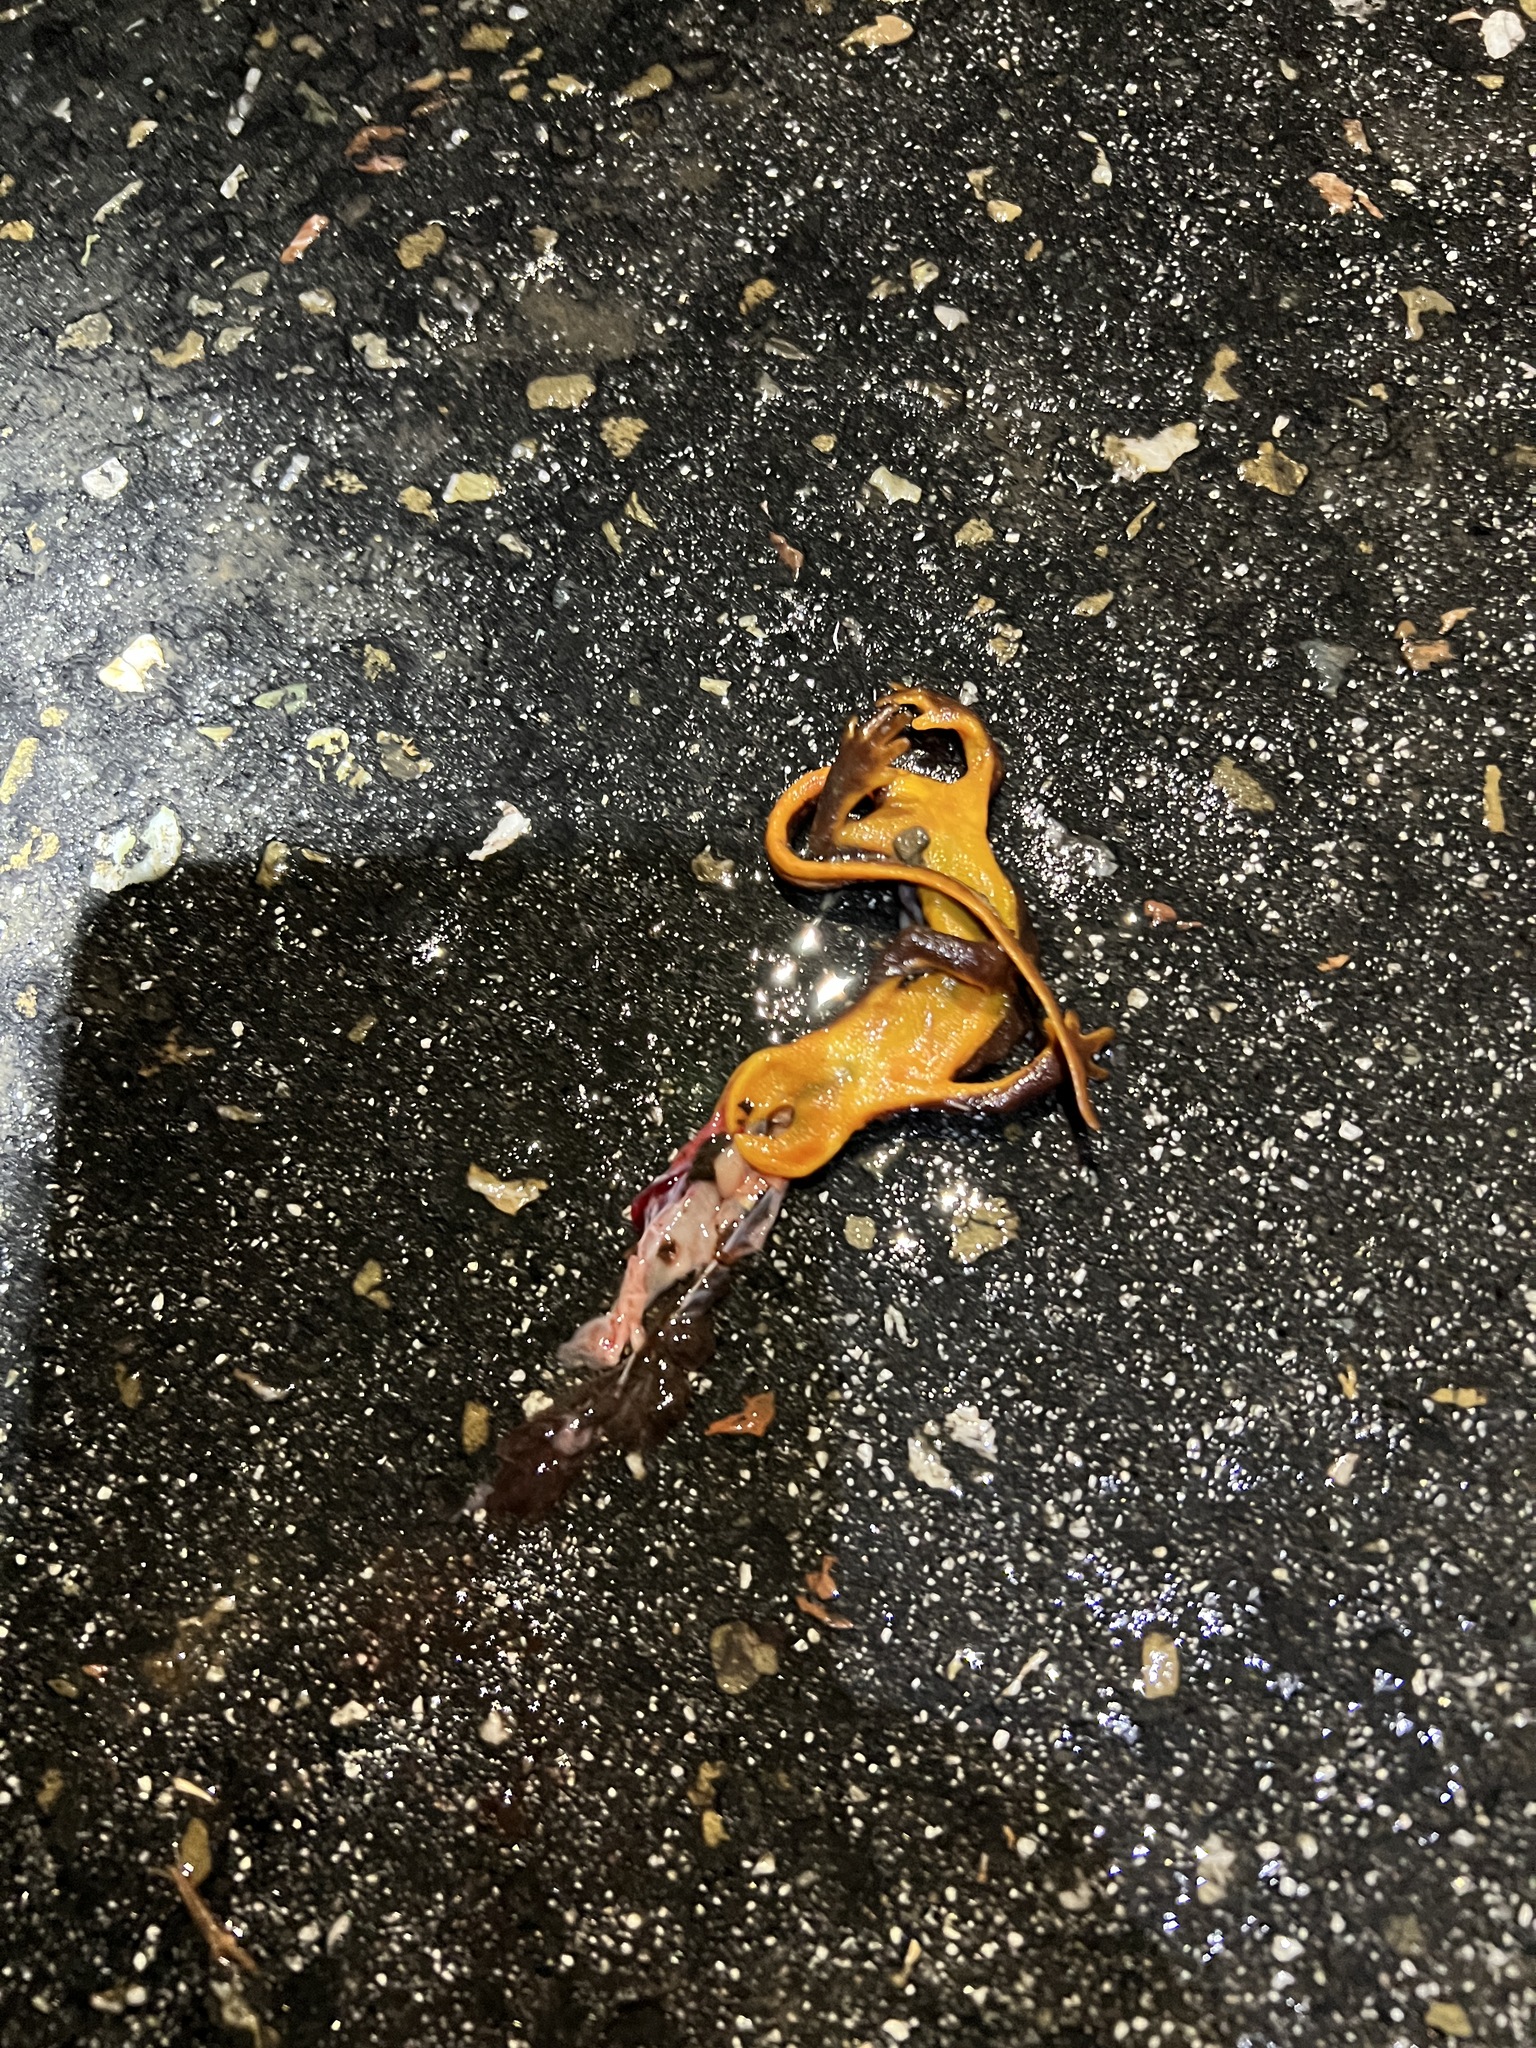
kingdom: Animalia
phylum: Chordata
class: Amphibia
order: Caudata
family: Salamandridae
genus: Taricha
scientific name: Taricha
